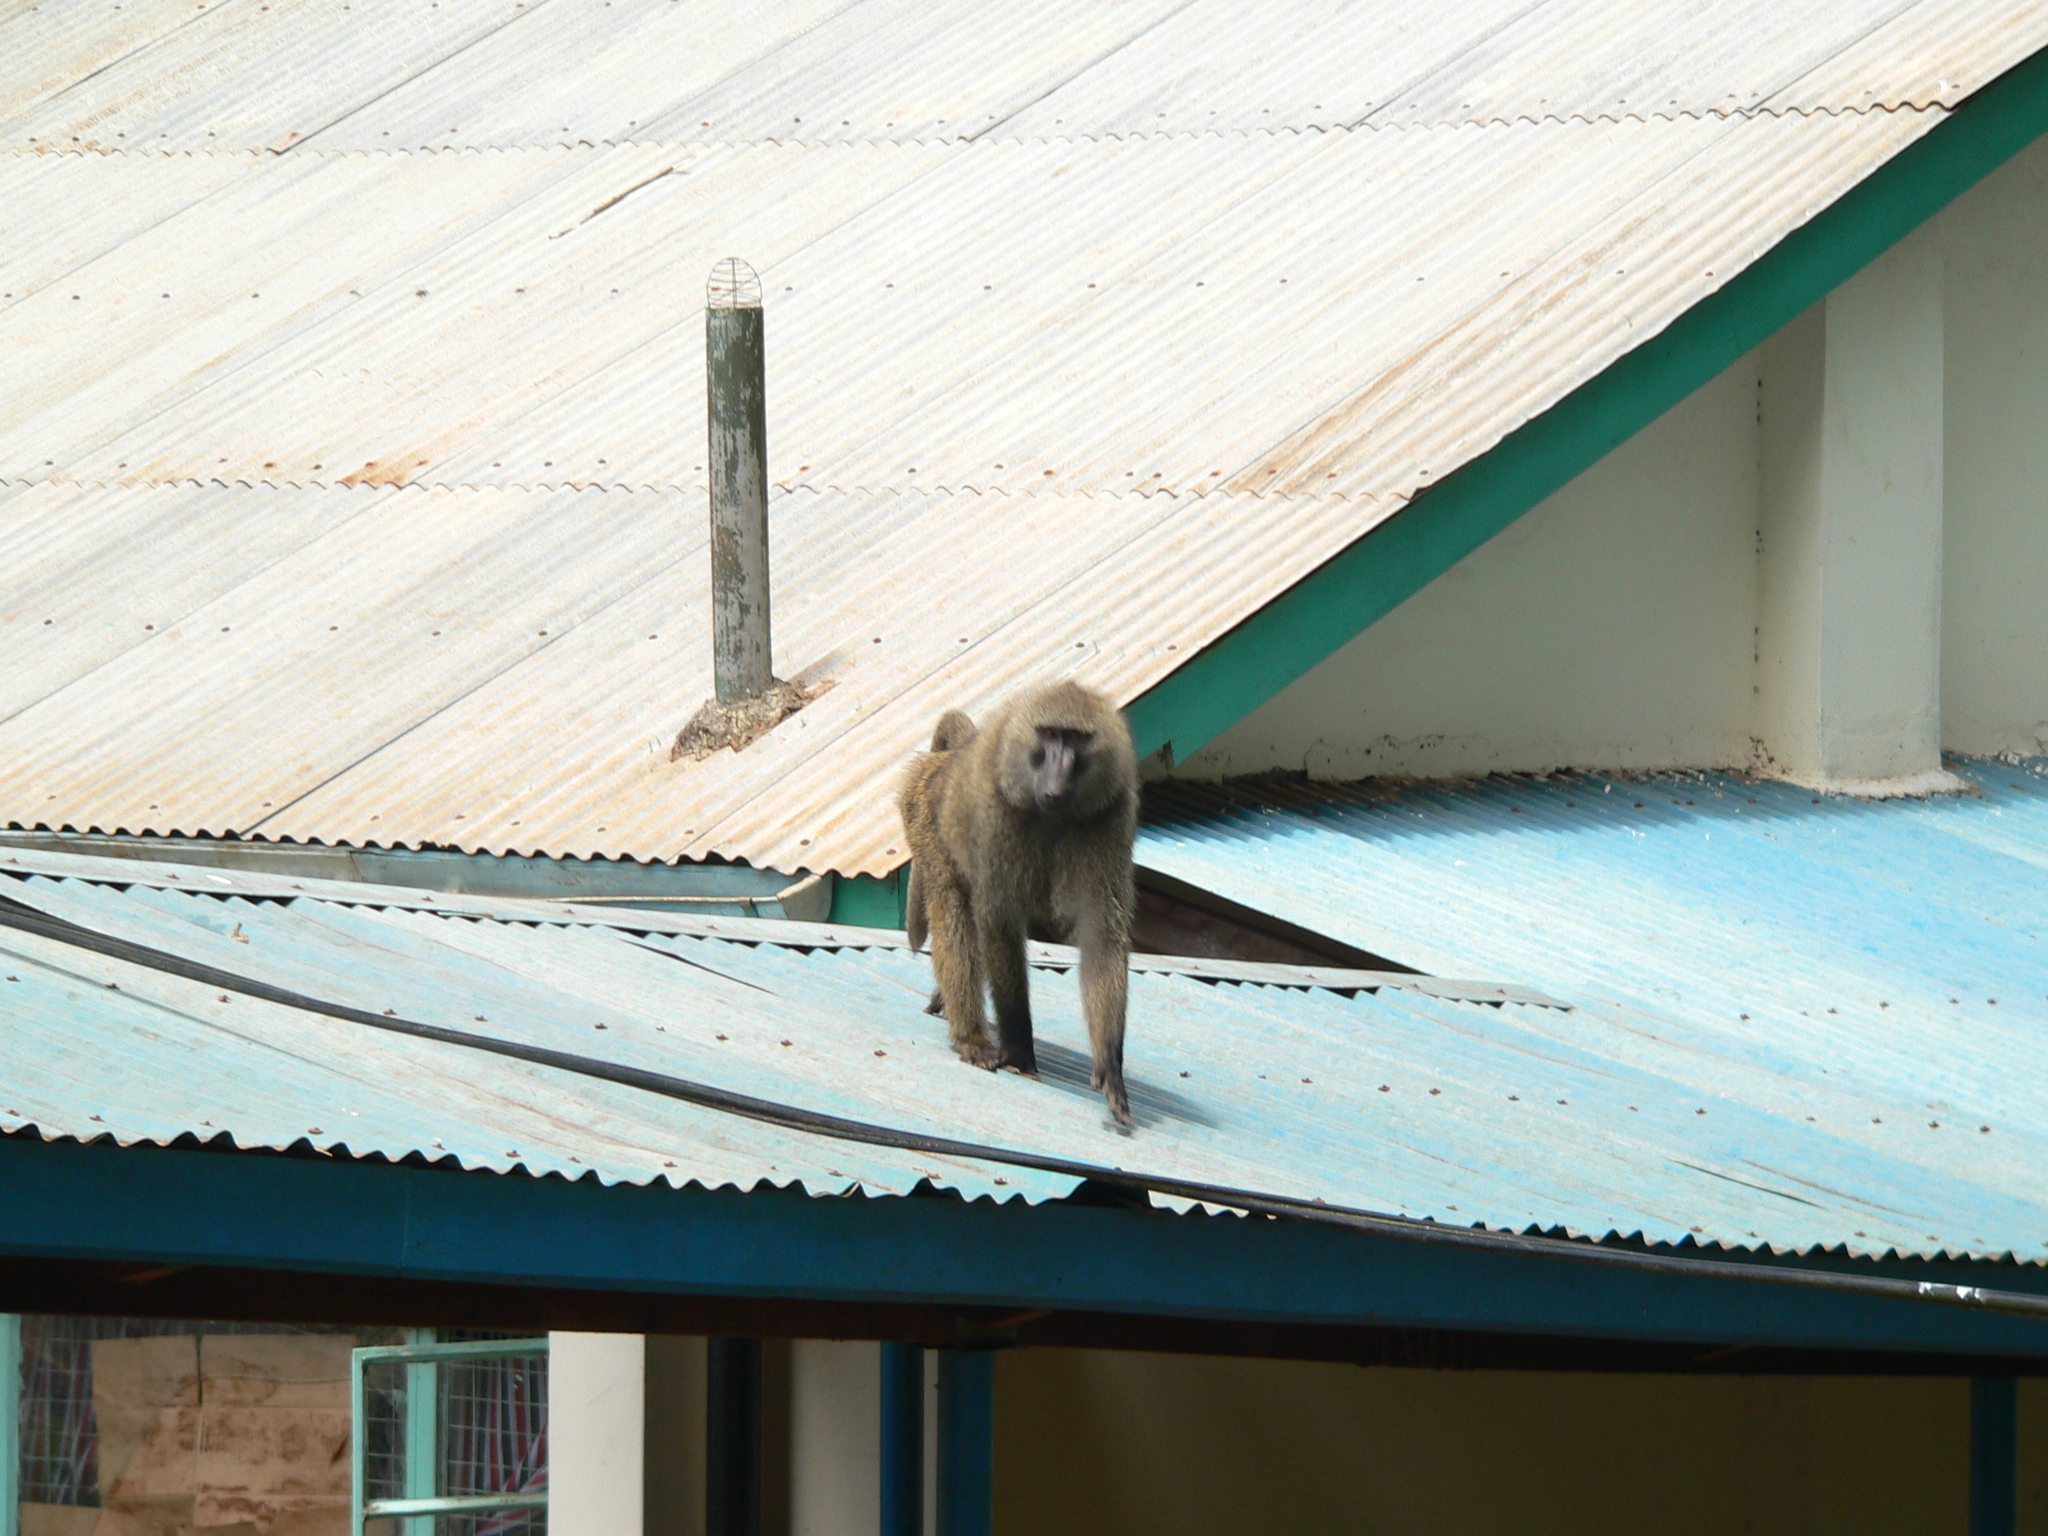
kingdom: Animalia
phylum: Chordata
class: Mammalia
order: Primates
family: Cercopithecidae
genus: Papio
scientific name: Papio anubis
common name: Olive baboon
